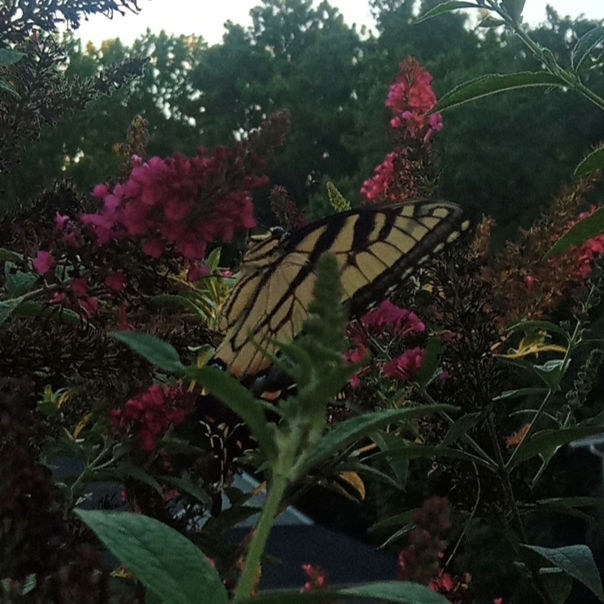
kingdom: Animalia
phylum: Arthropoda
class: Insecta
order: Lepidoptera
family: Papilionidae
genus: Papilio
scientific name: Papilio glaucus
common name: Tiger swallowtail
